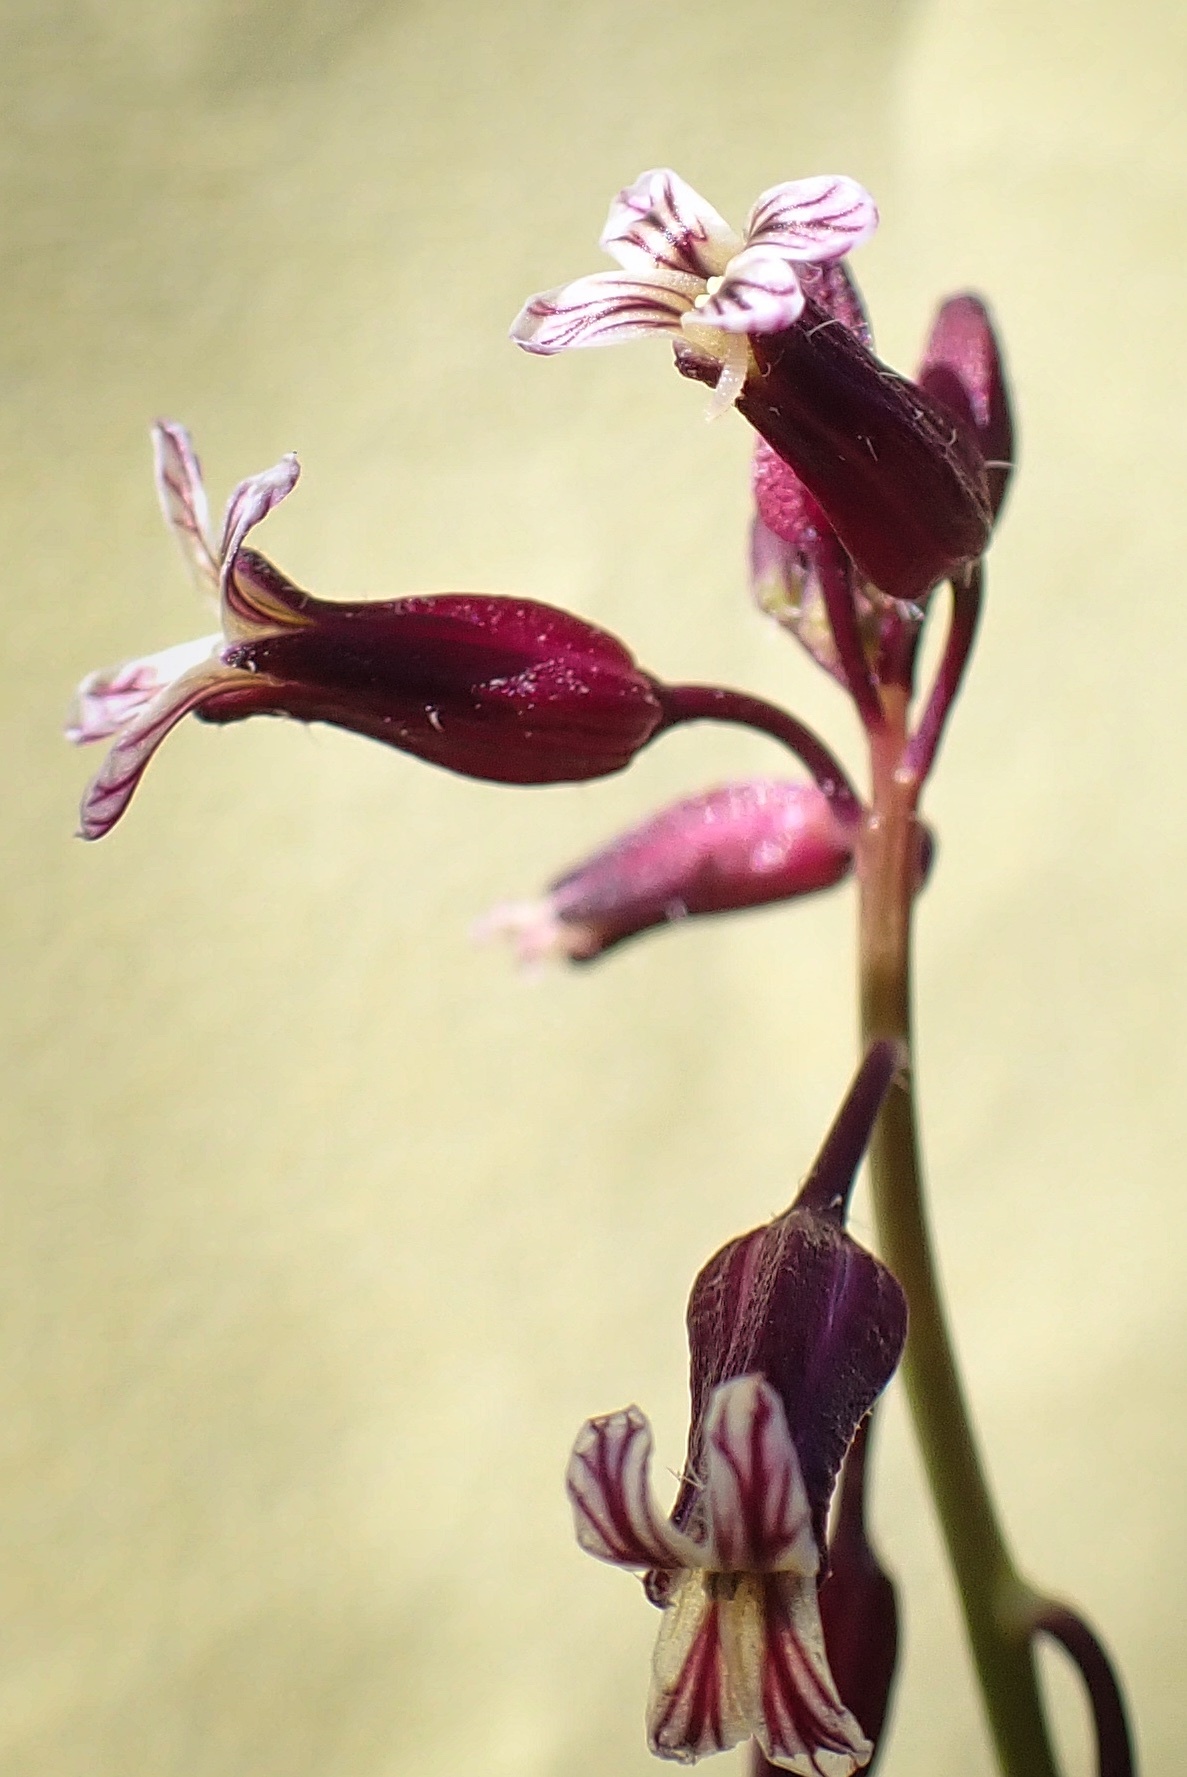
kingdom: Plantae
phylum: Tracheophyta
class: Magnoliopsida
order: Brassicales
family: Brassicaceae
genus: Streptanthus
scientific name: Streptanthus heterophyllus
